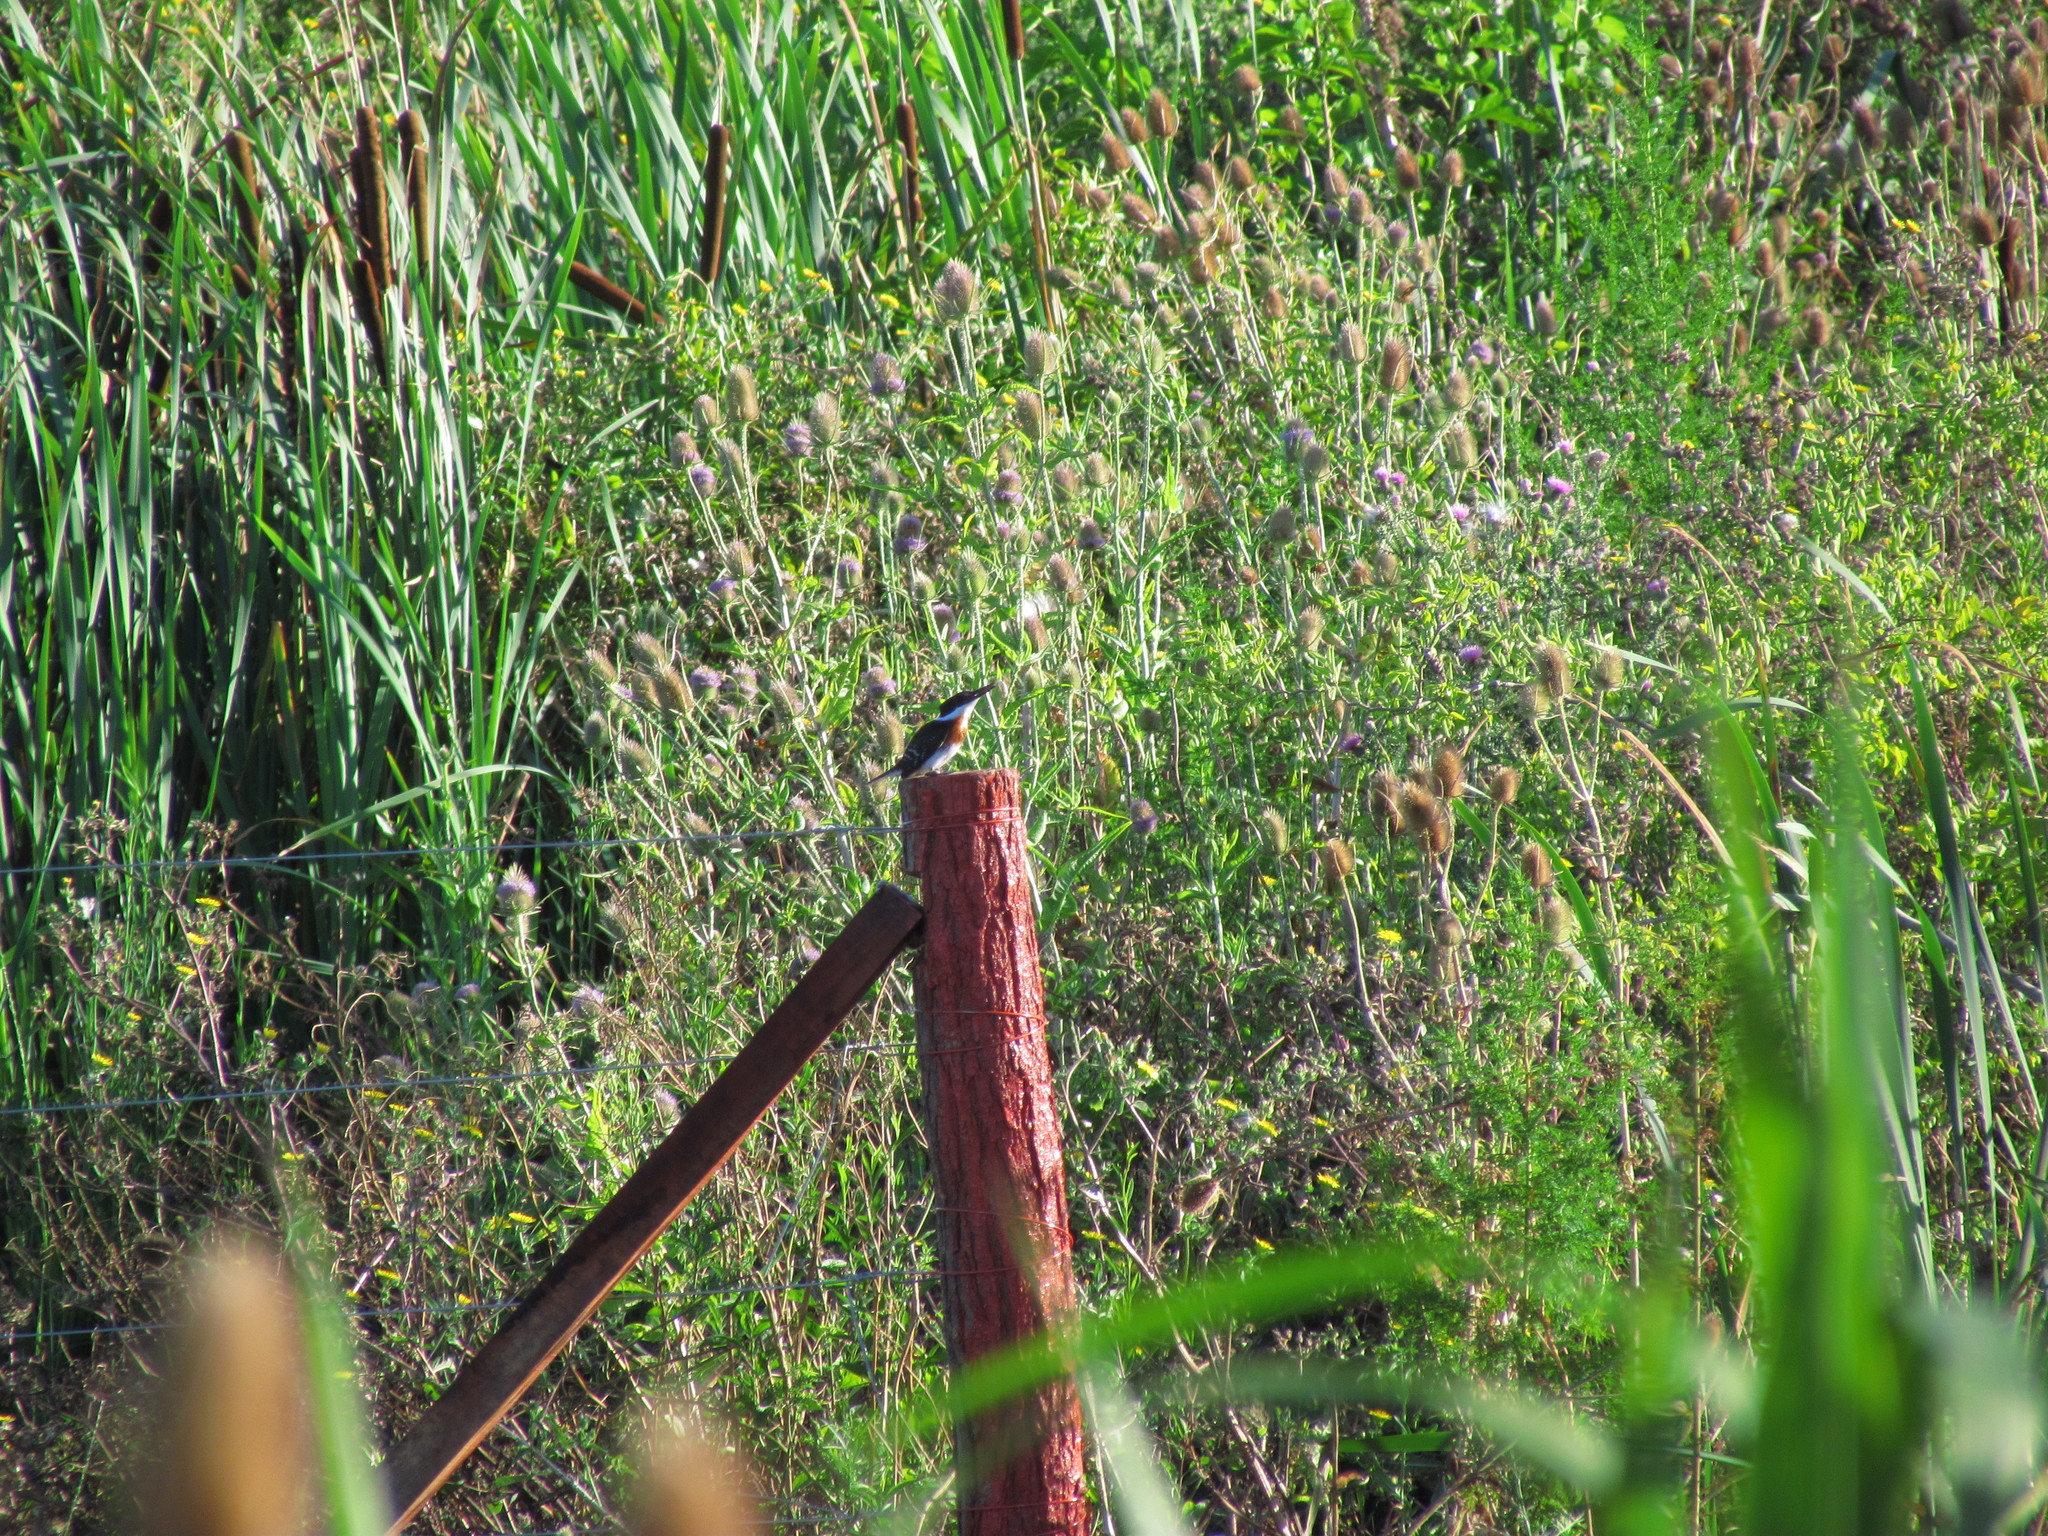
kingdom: Animalia
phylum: Chordata
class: Aves
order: Coraciiformes
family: Alcedinidae
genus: Chloroceryle
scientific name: Chloroceryle americana
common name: Green kingfisher
